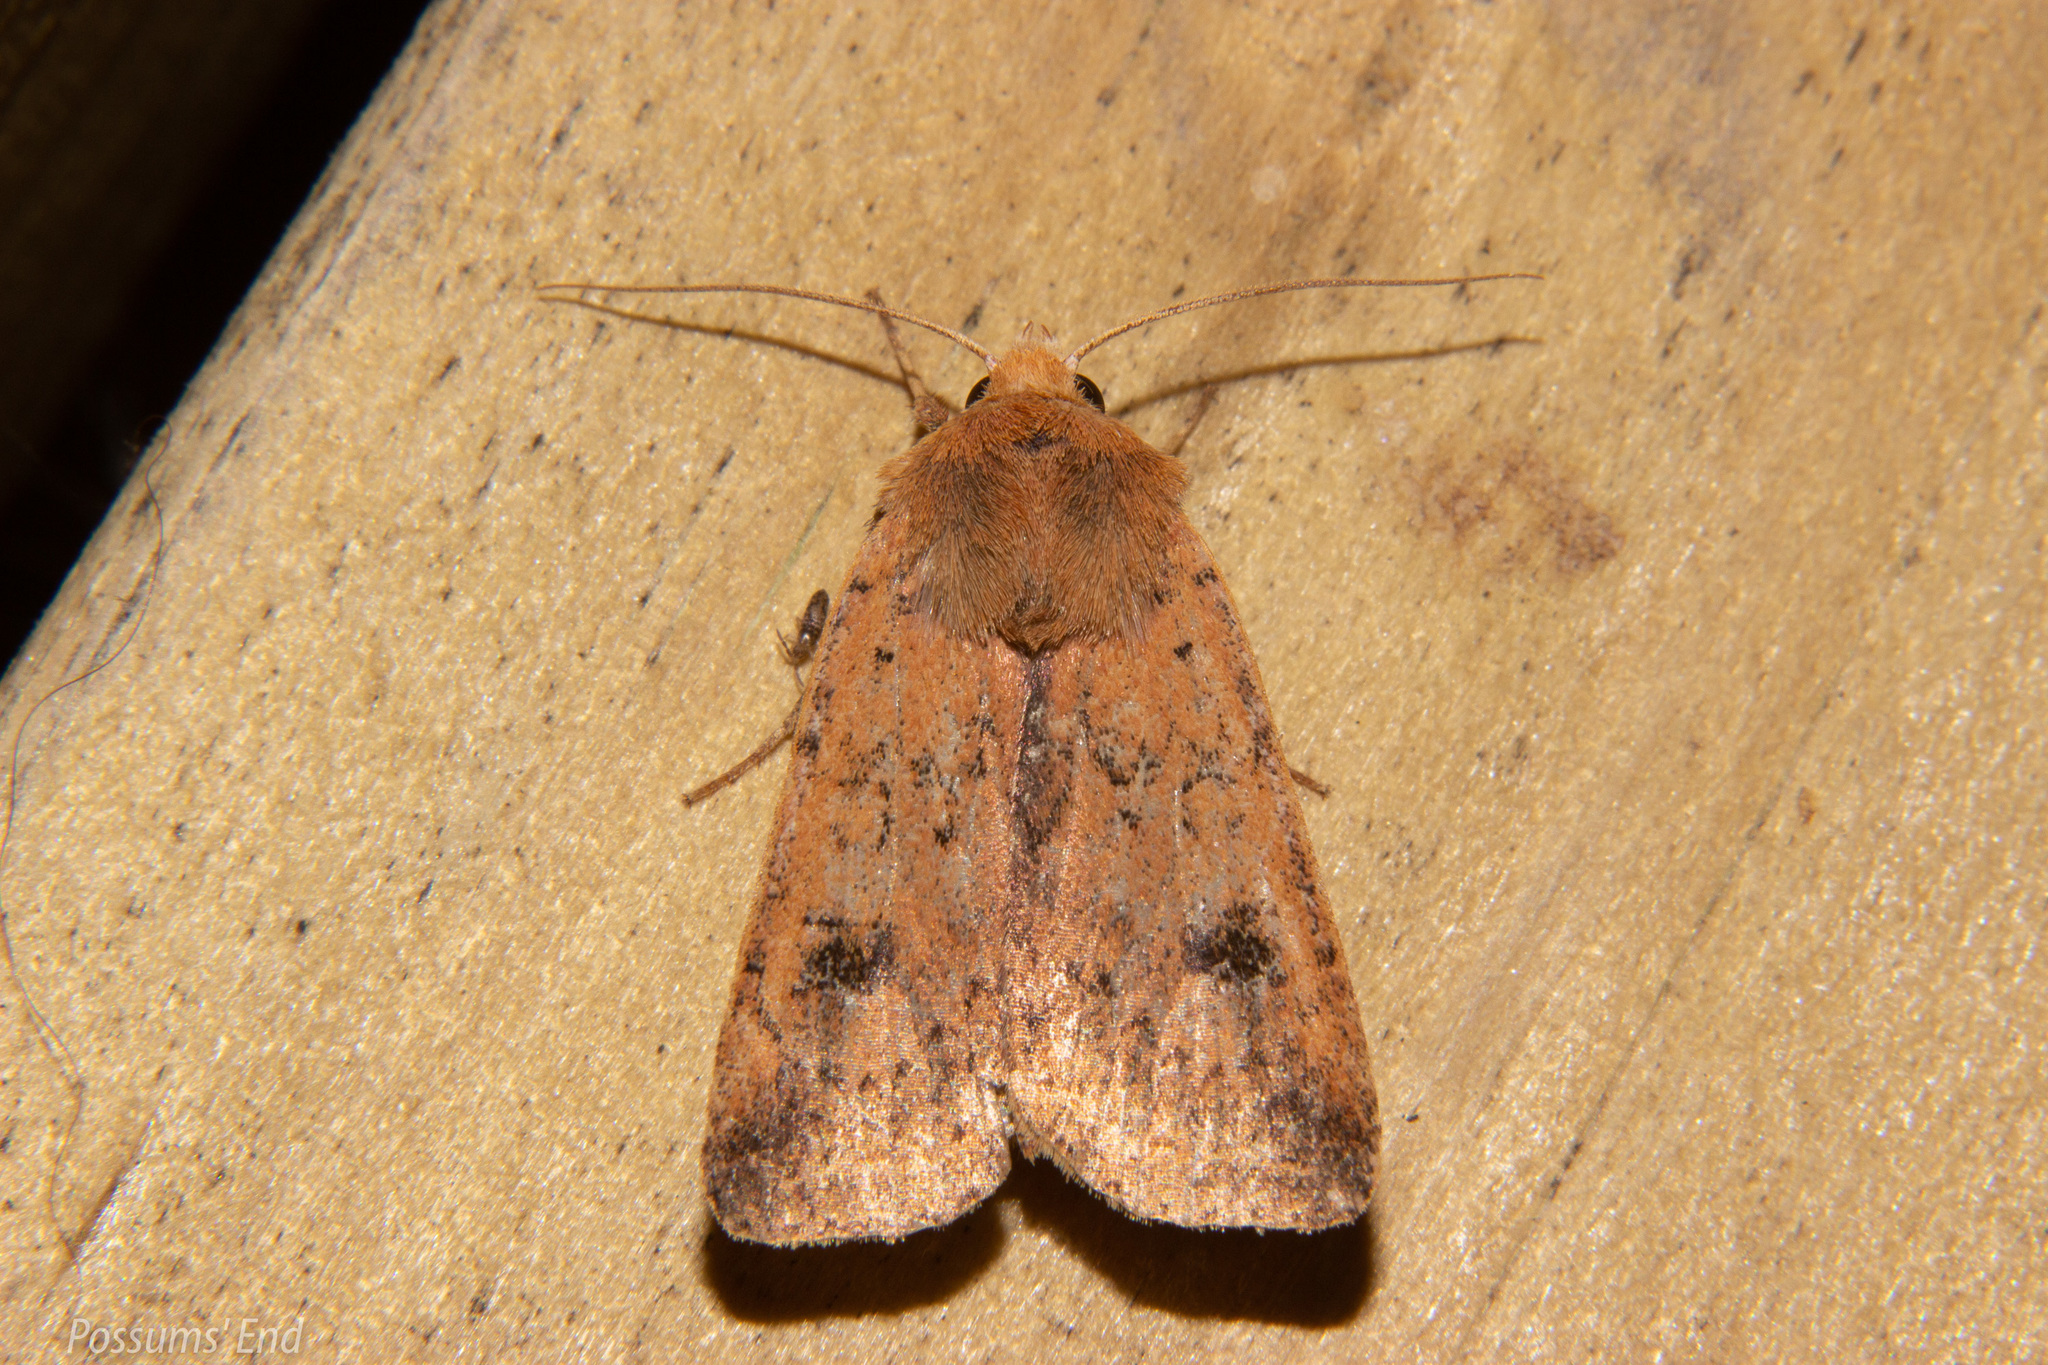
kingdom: Animalia
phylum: Arthropoda
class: Insecta
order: Lepidoptera
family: Noctuidae
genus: Diarsia
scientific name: Diarsia intermixta
